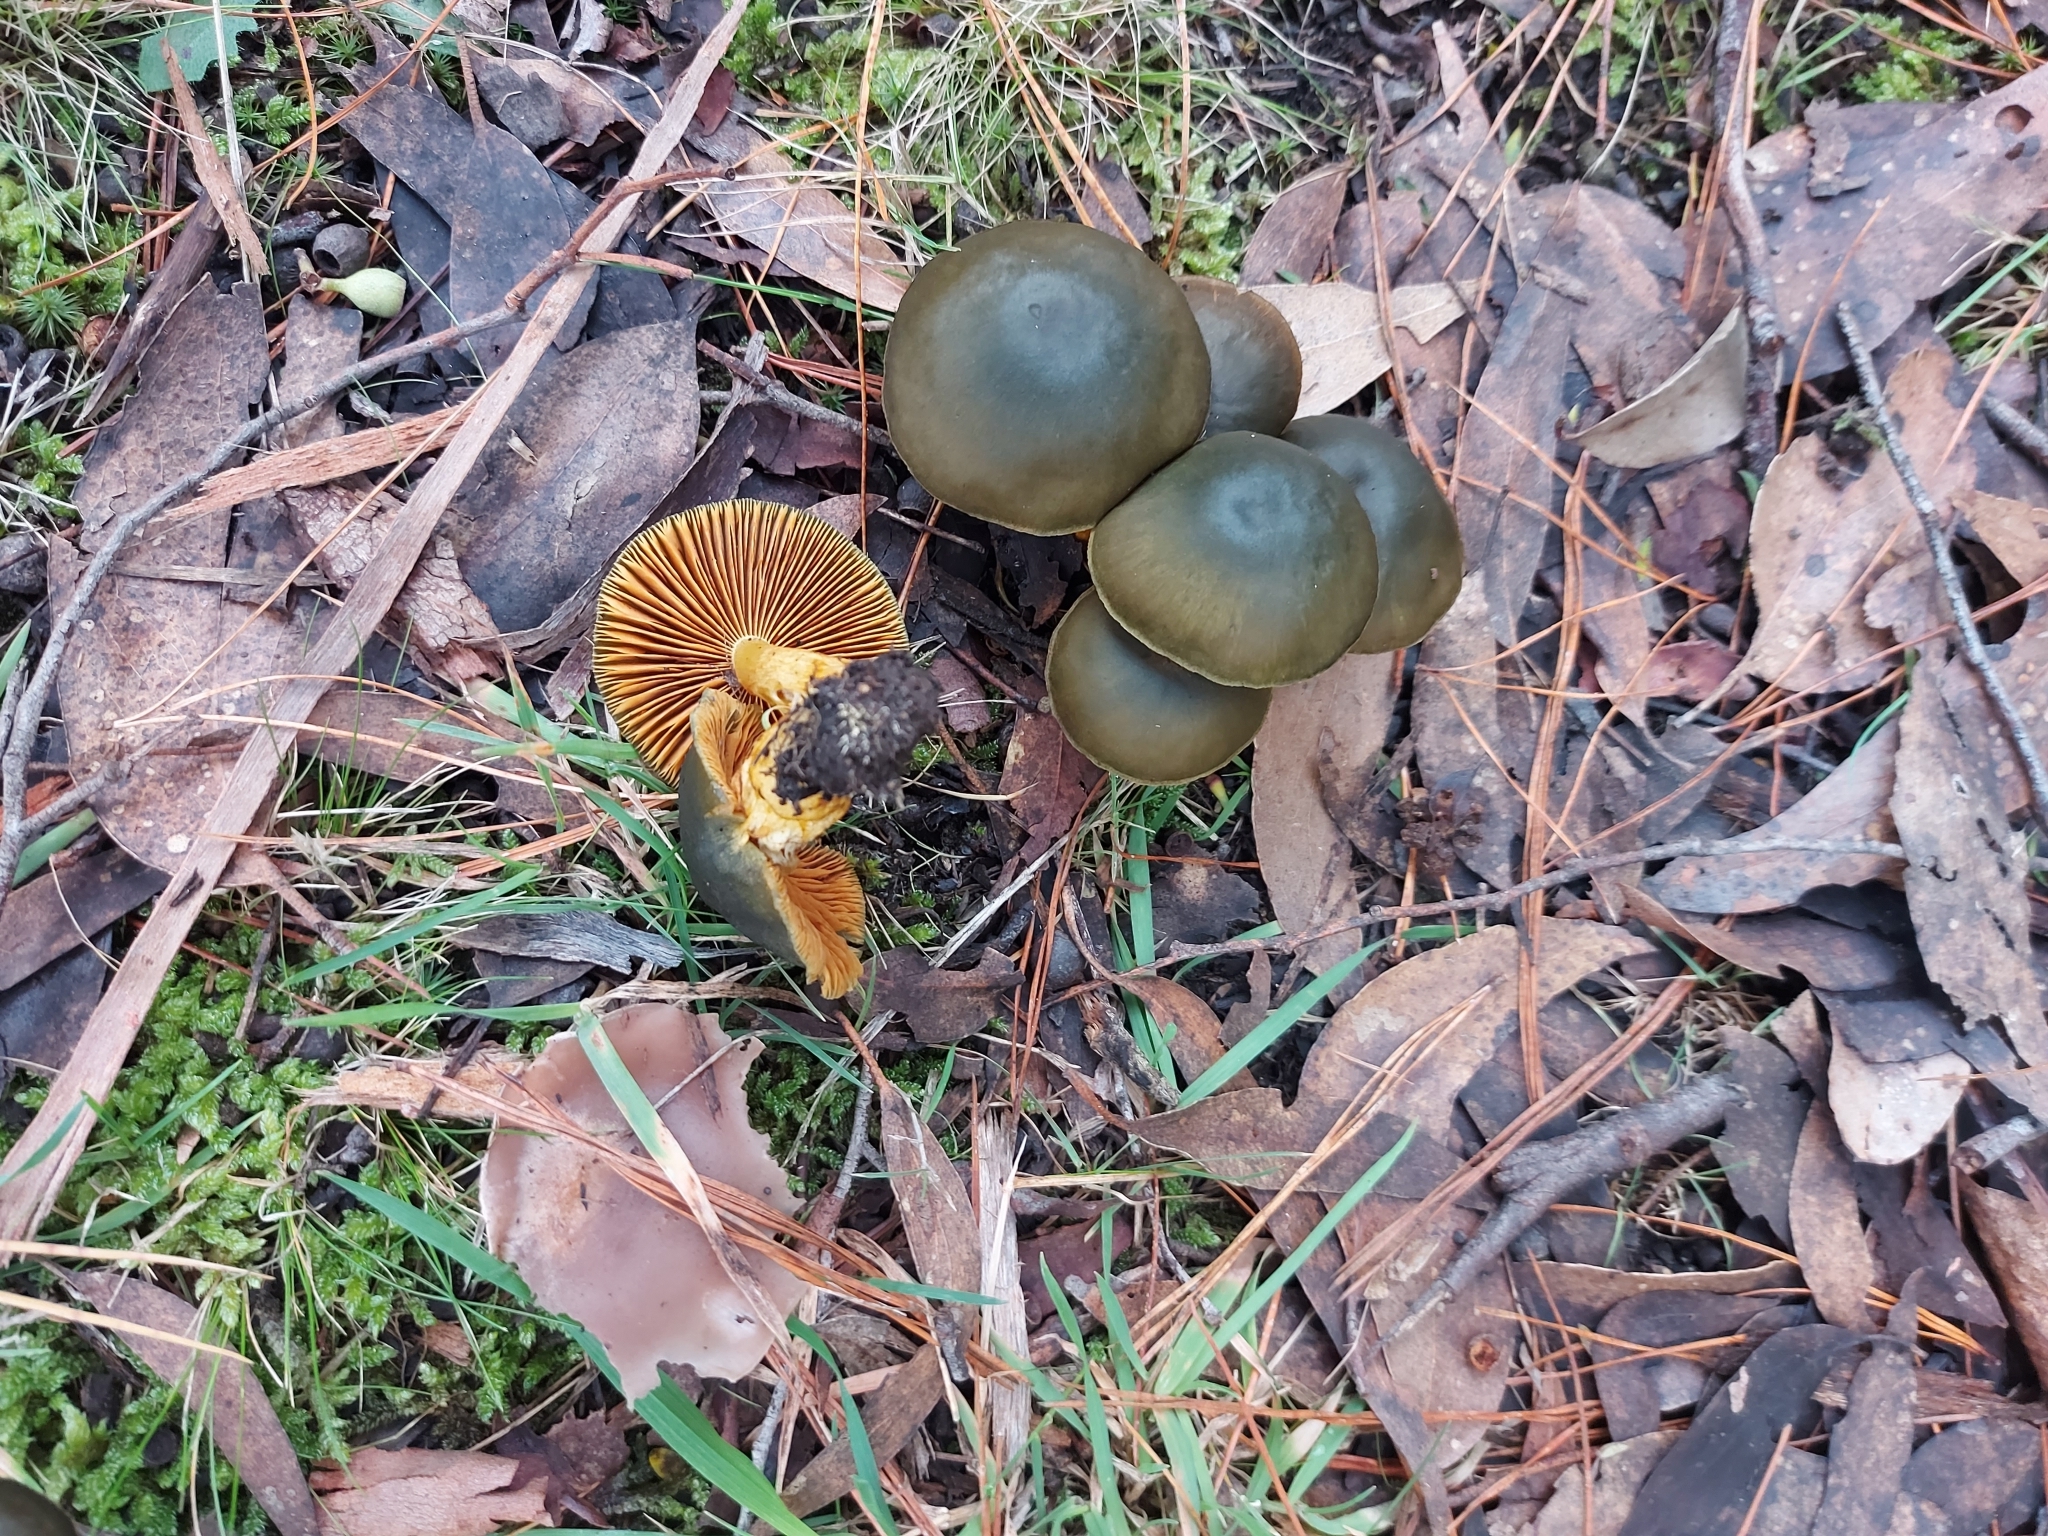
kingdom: Fungi
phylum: Basidiomycota
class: Agaricomycetes
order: Agaricales
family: Cortinariaceae
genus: Cortinarius
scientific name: Cortinarius austrovenetus
